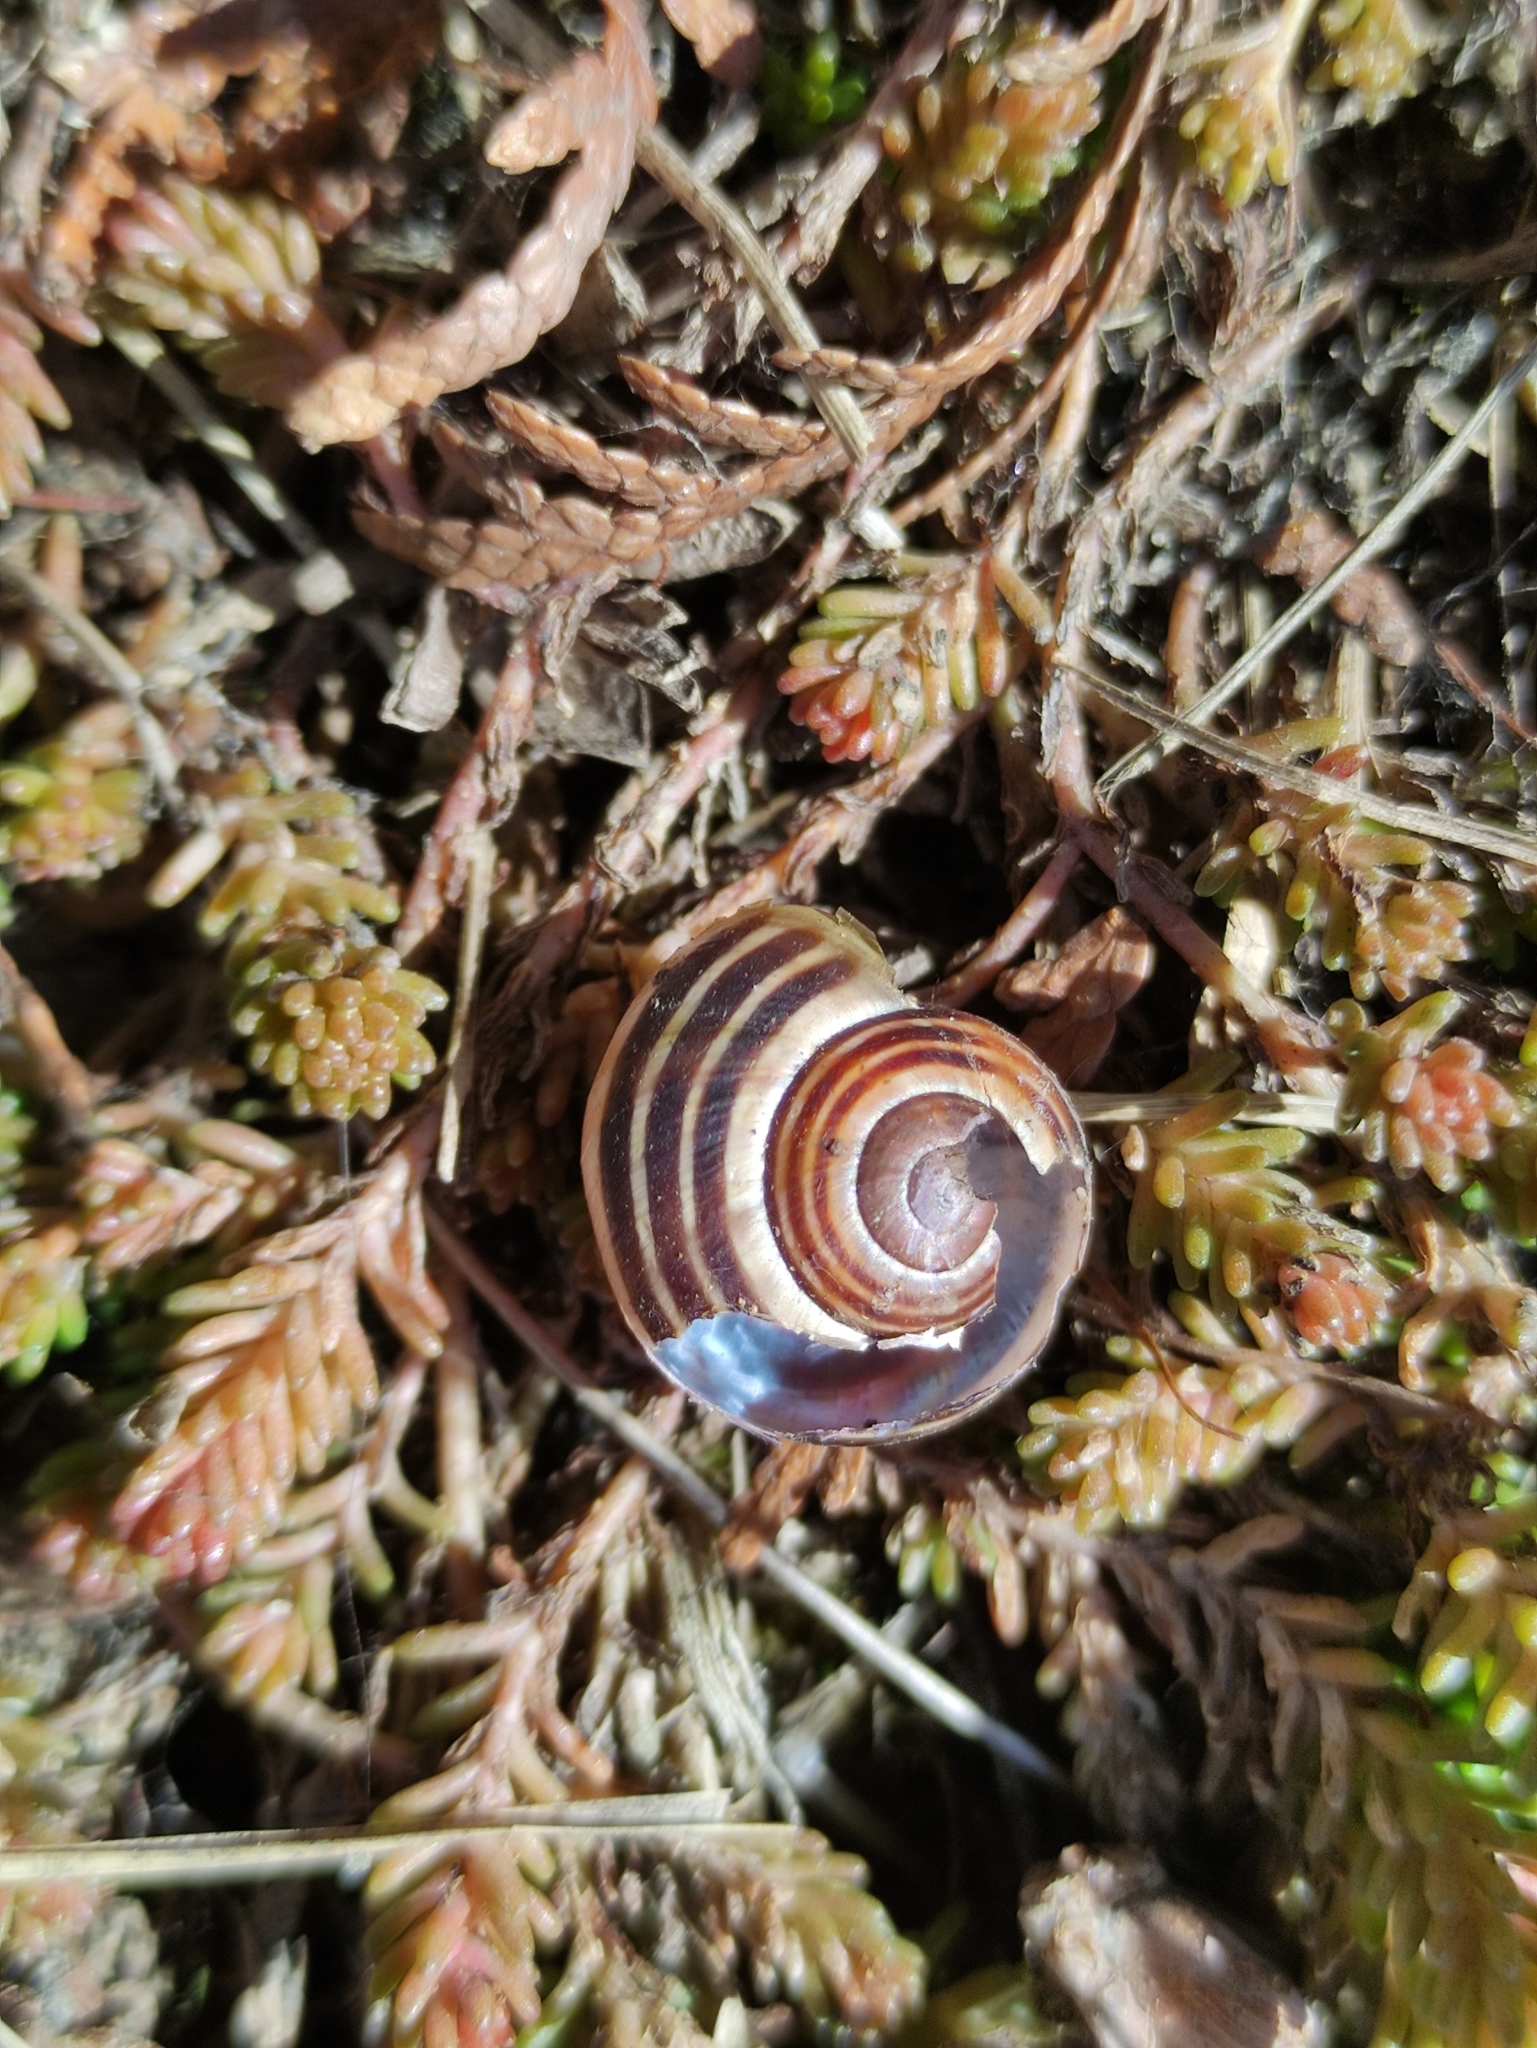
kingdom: Animalia
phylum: Mollusca
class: Gastropoda
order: Stylommatophora
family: Helicidae
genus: Cepaea
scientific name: Cepaea nemoralis
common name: Grovesnail
